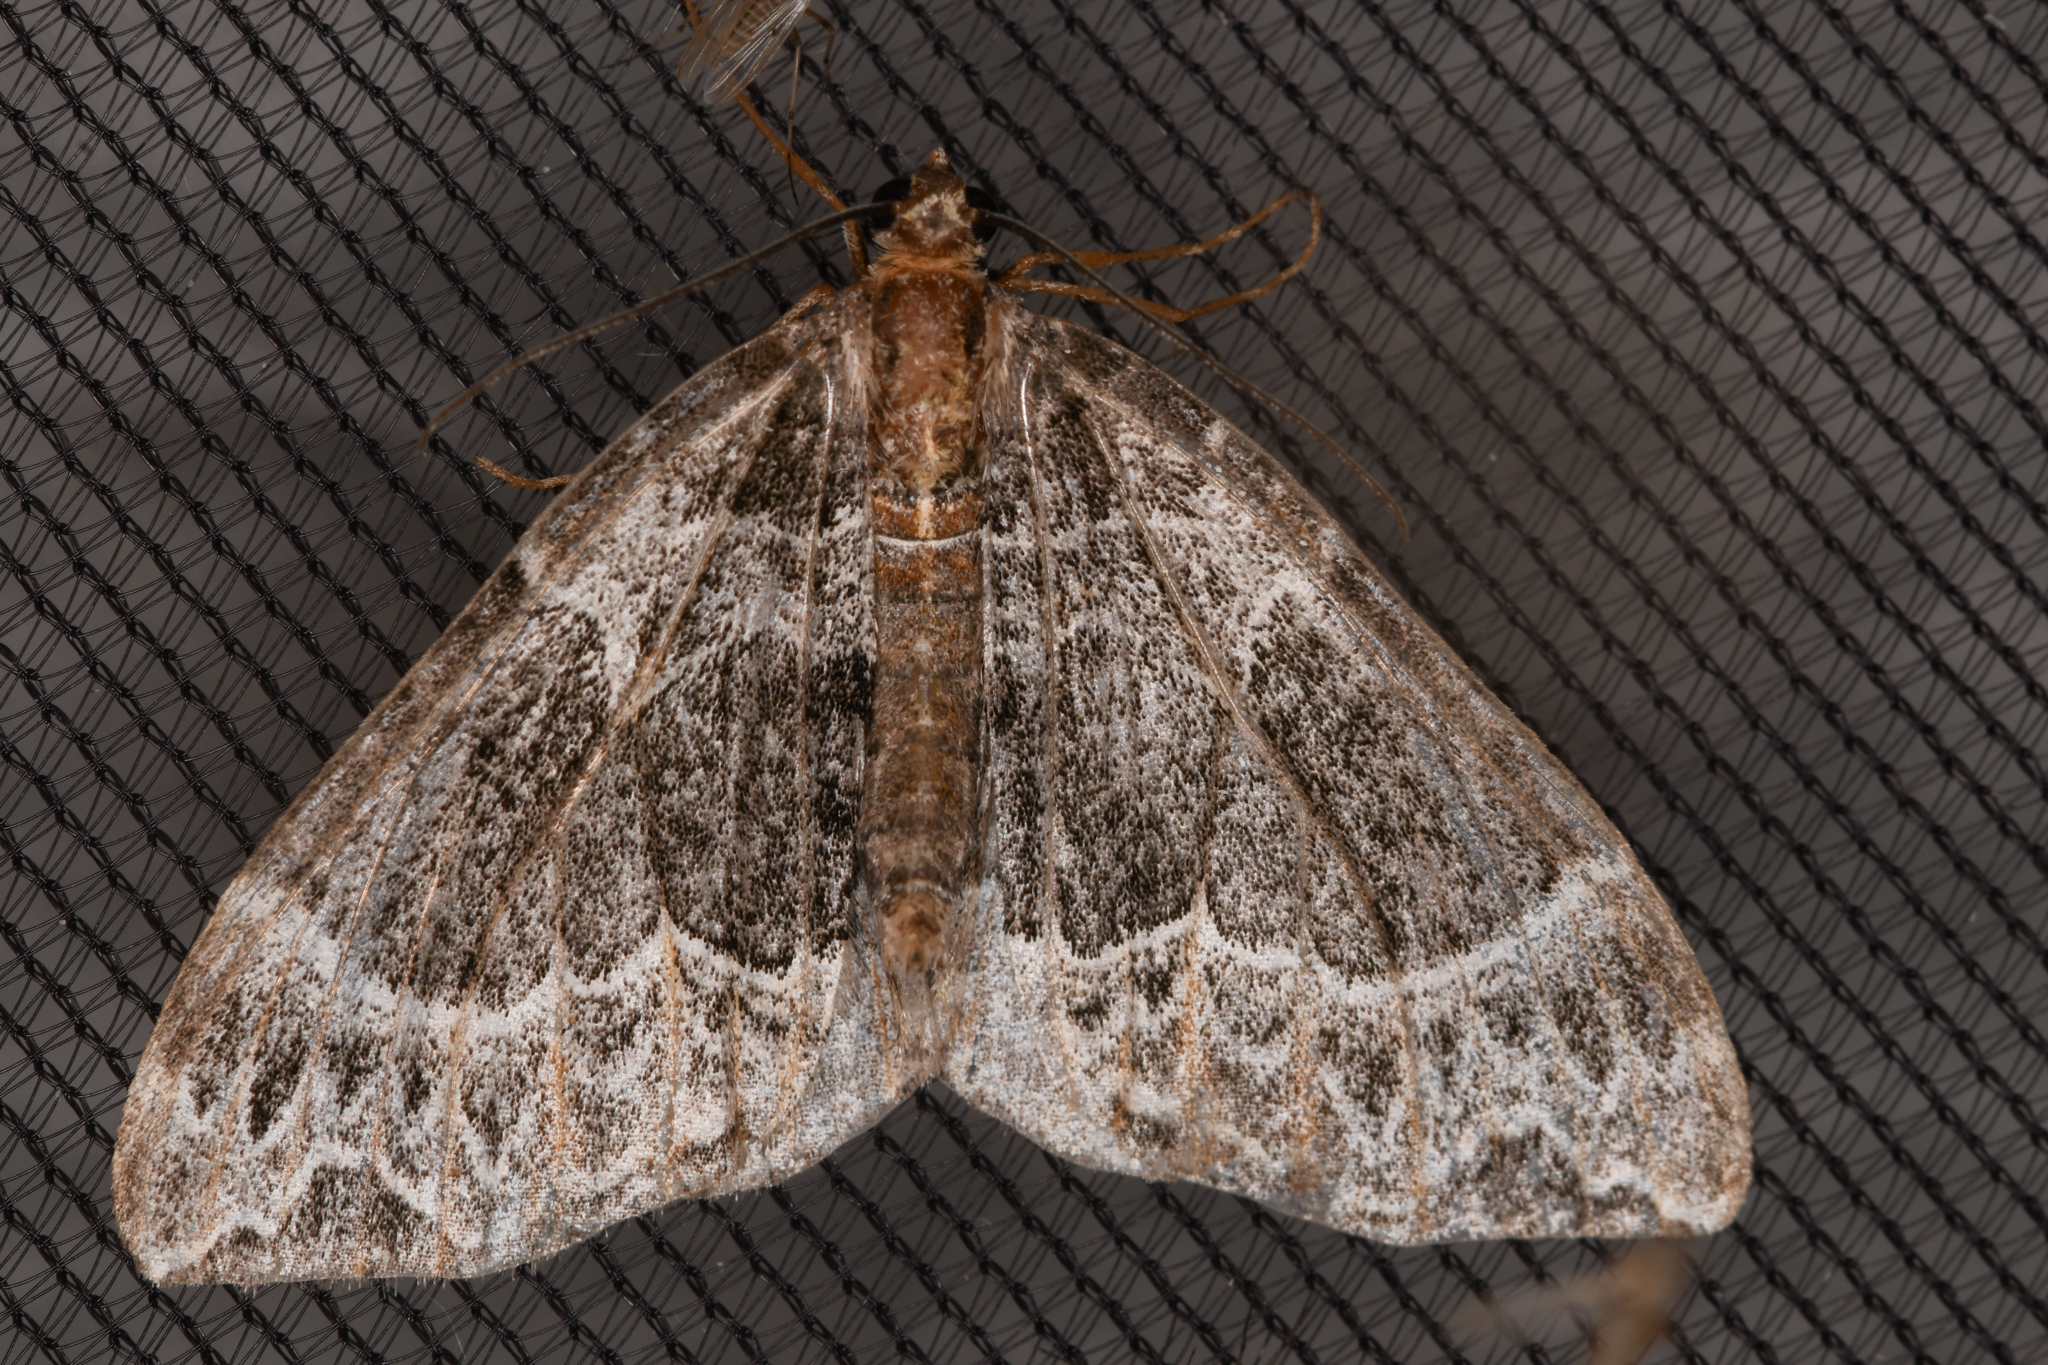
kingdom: Animalia
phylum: Arthropoda
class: Insecta
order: Lepidoptera
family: Geometridae
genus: Ecliptopera
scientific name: Ecliptopera silaceata
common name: Small phoenix
